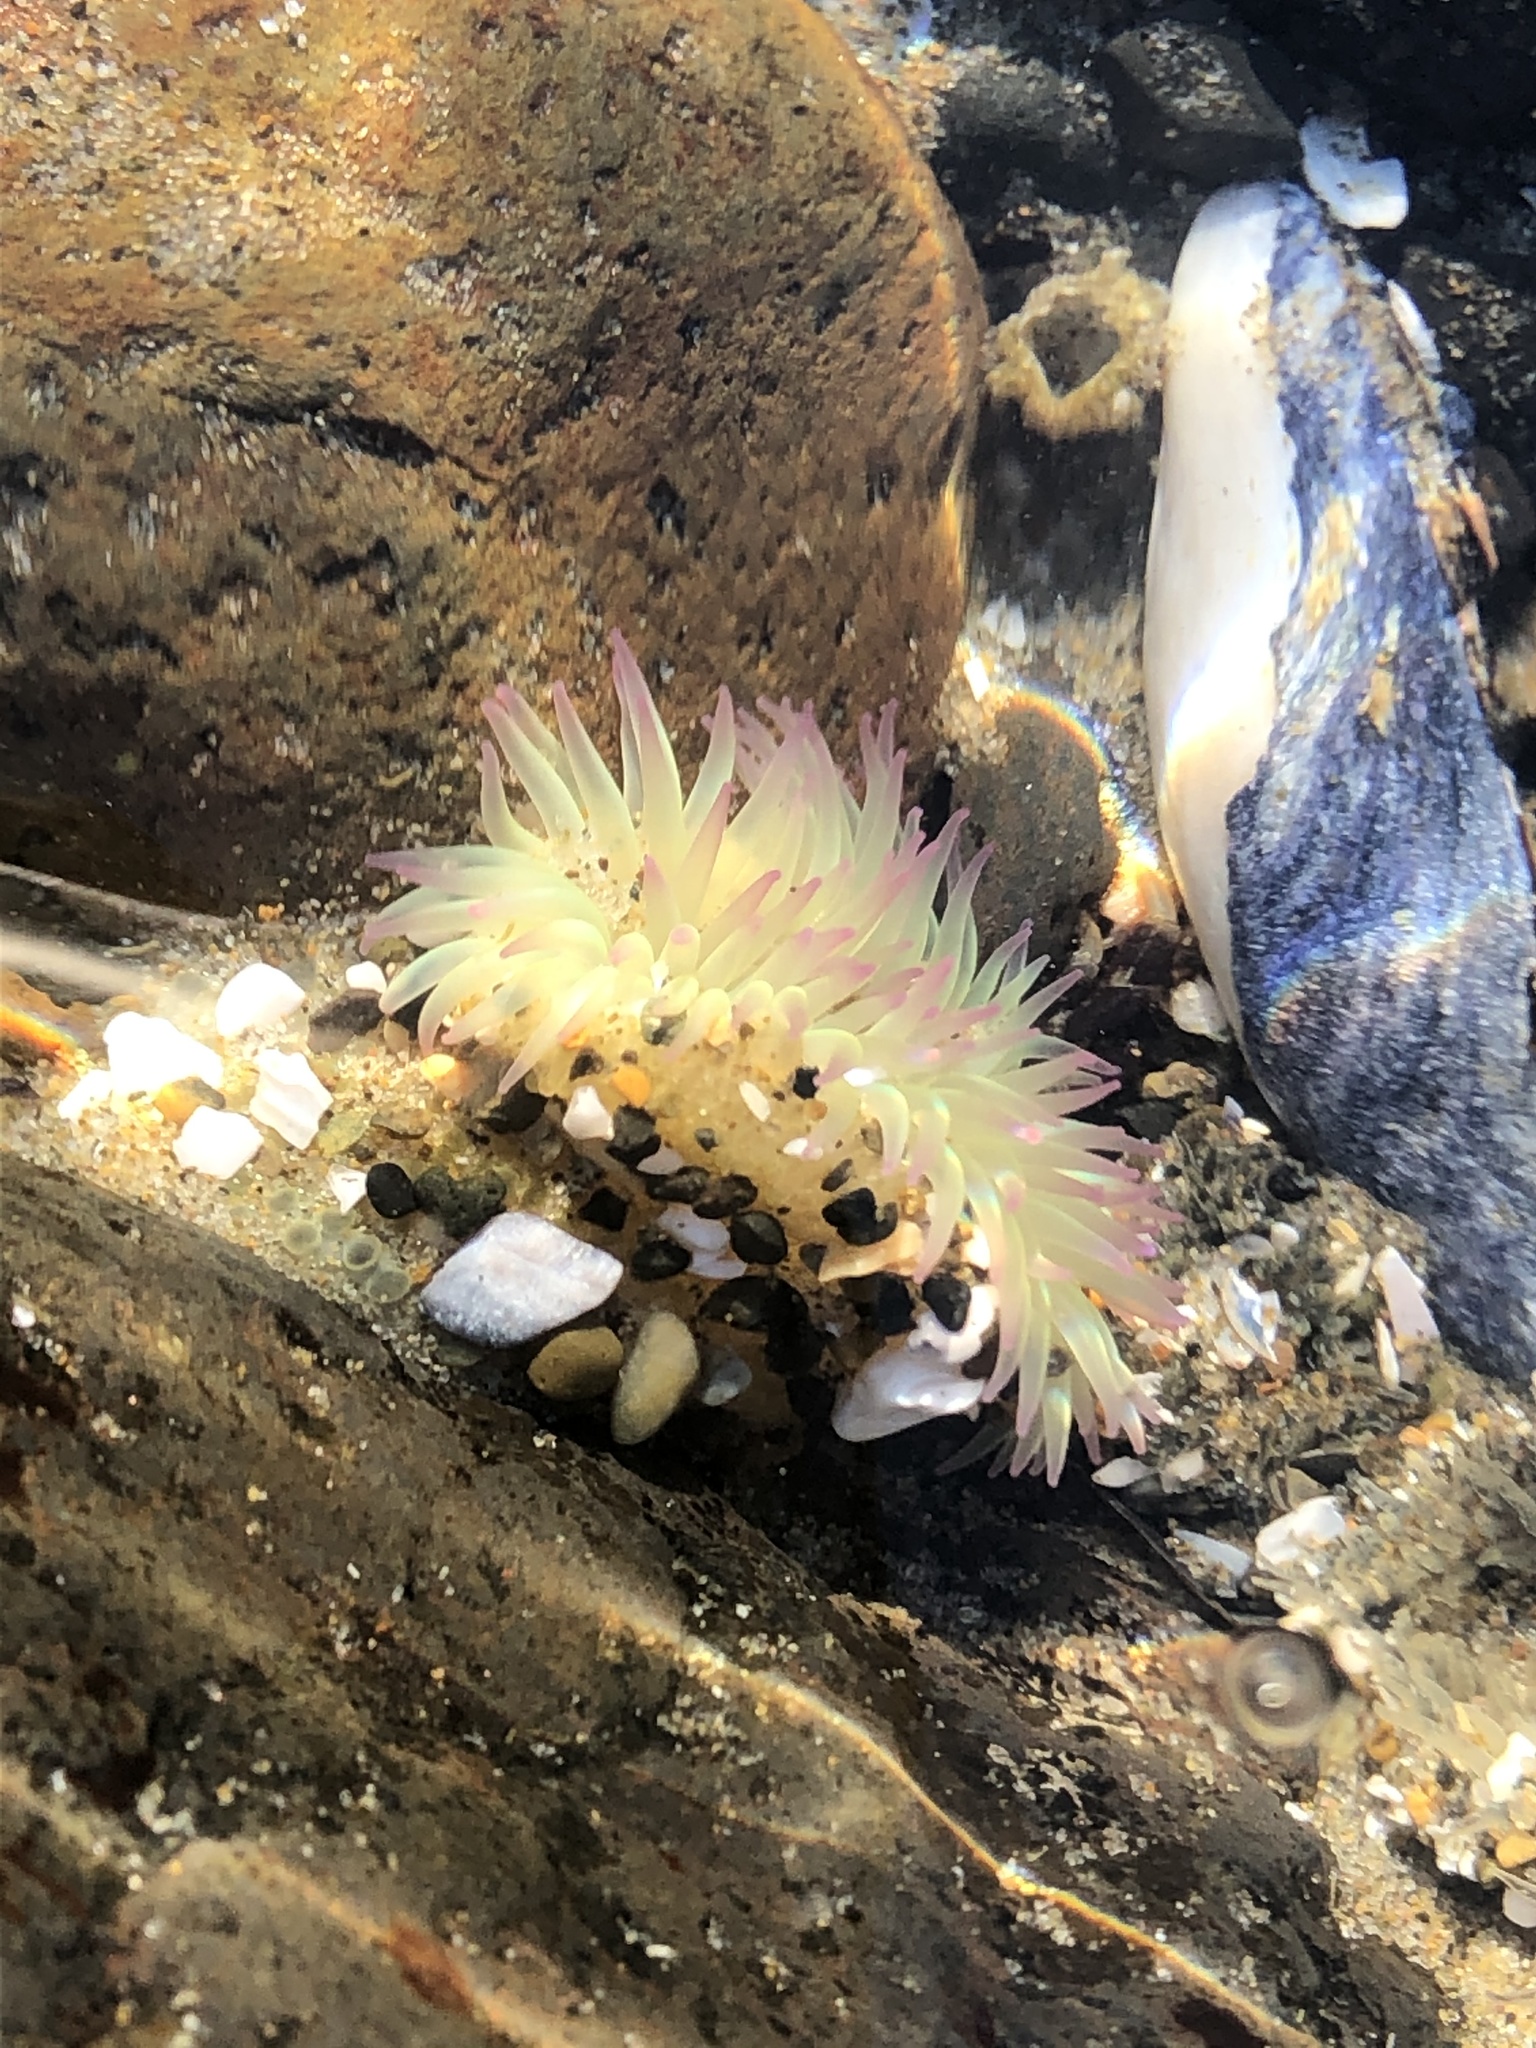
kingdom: Animalia
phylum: Cnidaria
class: Anthozoa
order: Actiniaria
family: Actiniidae
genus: Anthopleura
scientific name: Anthopleura elegantissima
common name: Clonal anemone
